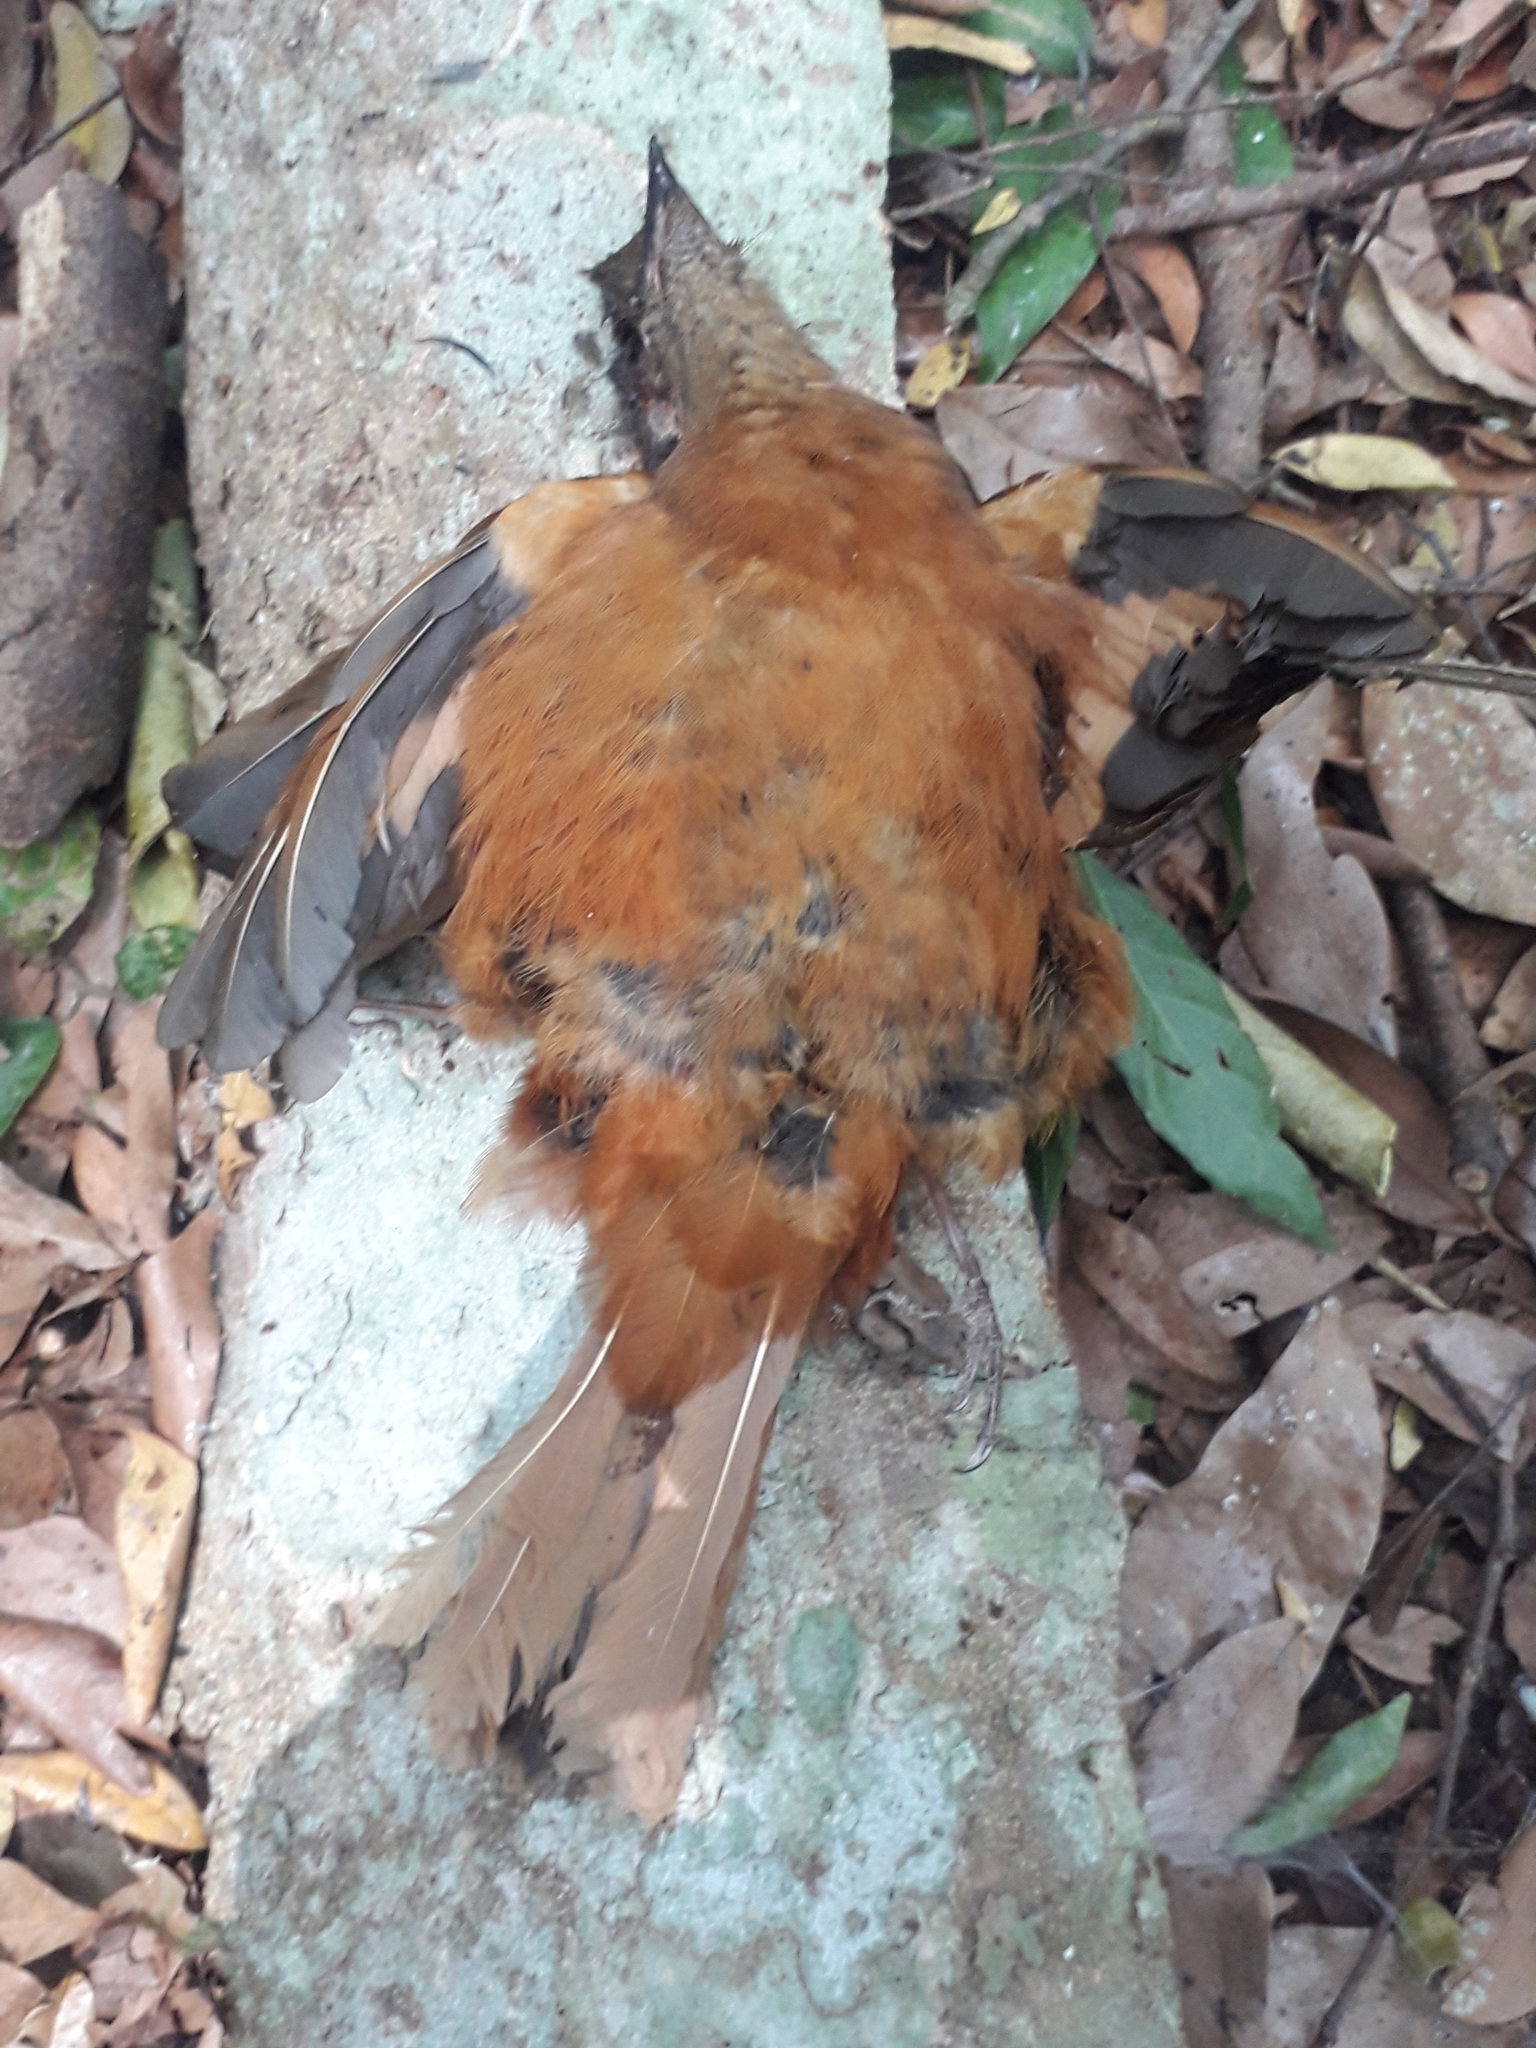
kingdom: Animalia
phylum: Chordata
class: Aves
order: Passeriformes
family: Turdidae
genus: Stizorhina
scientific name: Stizorhina fraseri
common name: Fraser's rufous thrush
